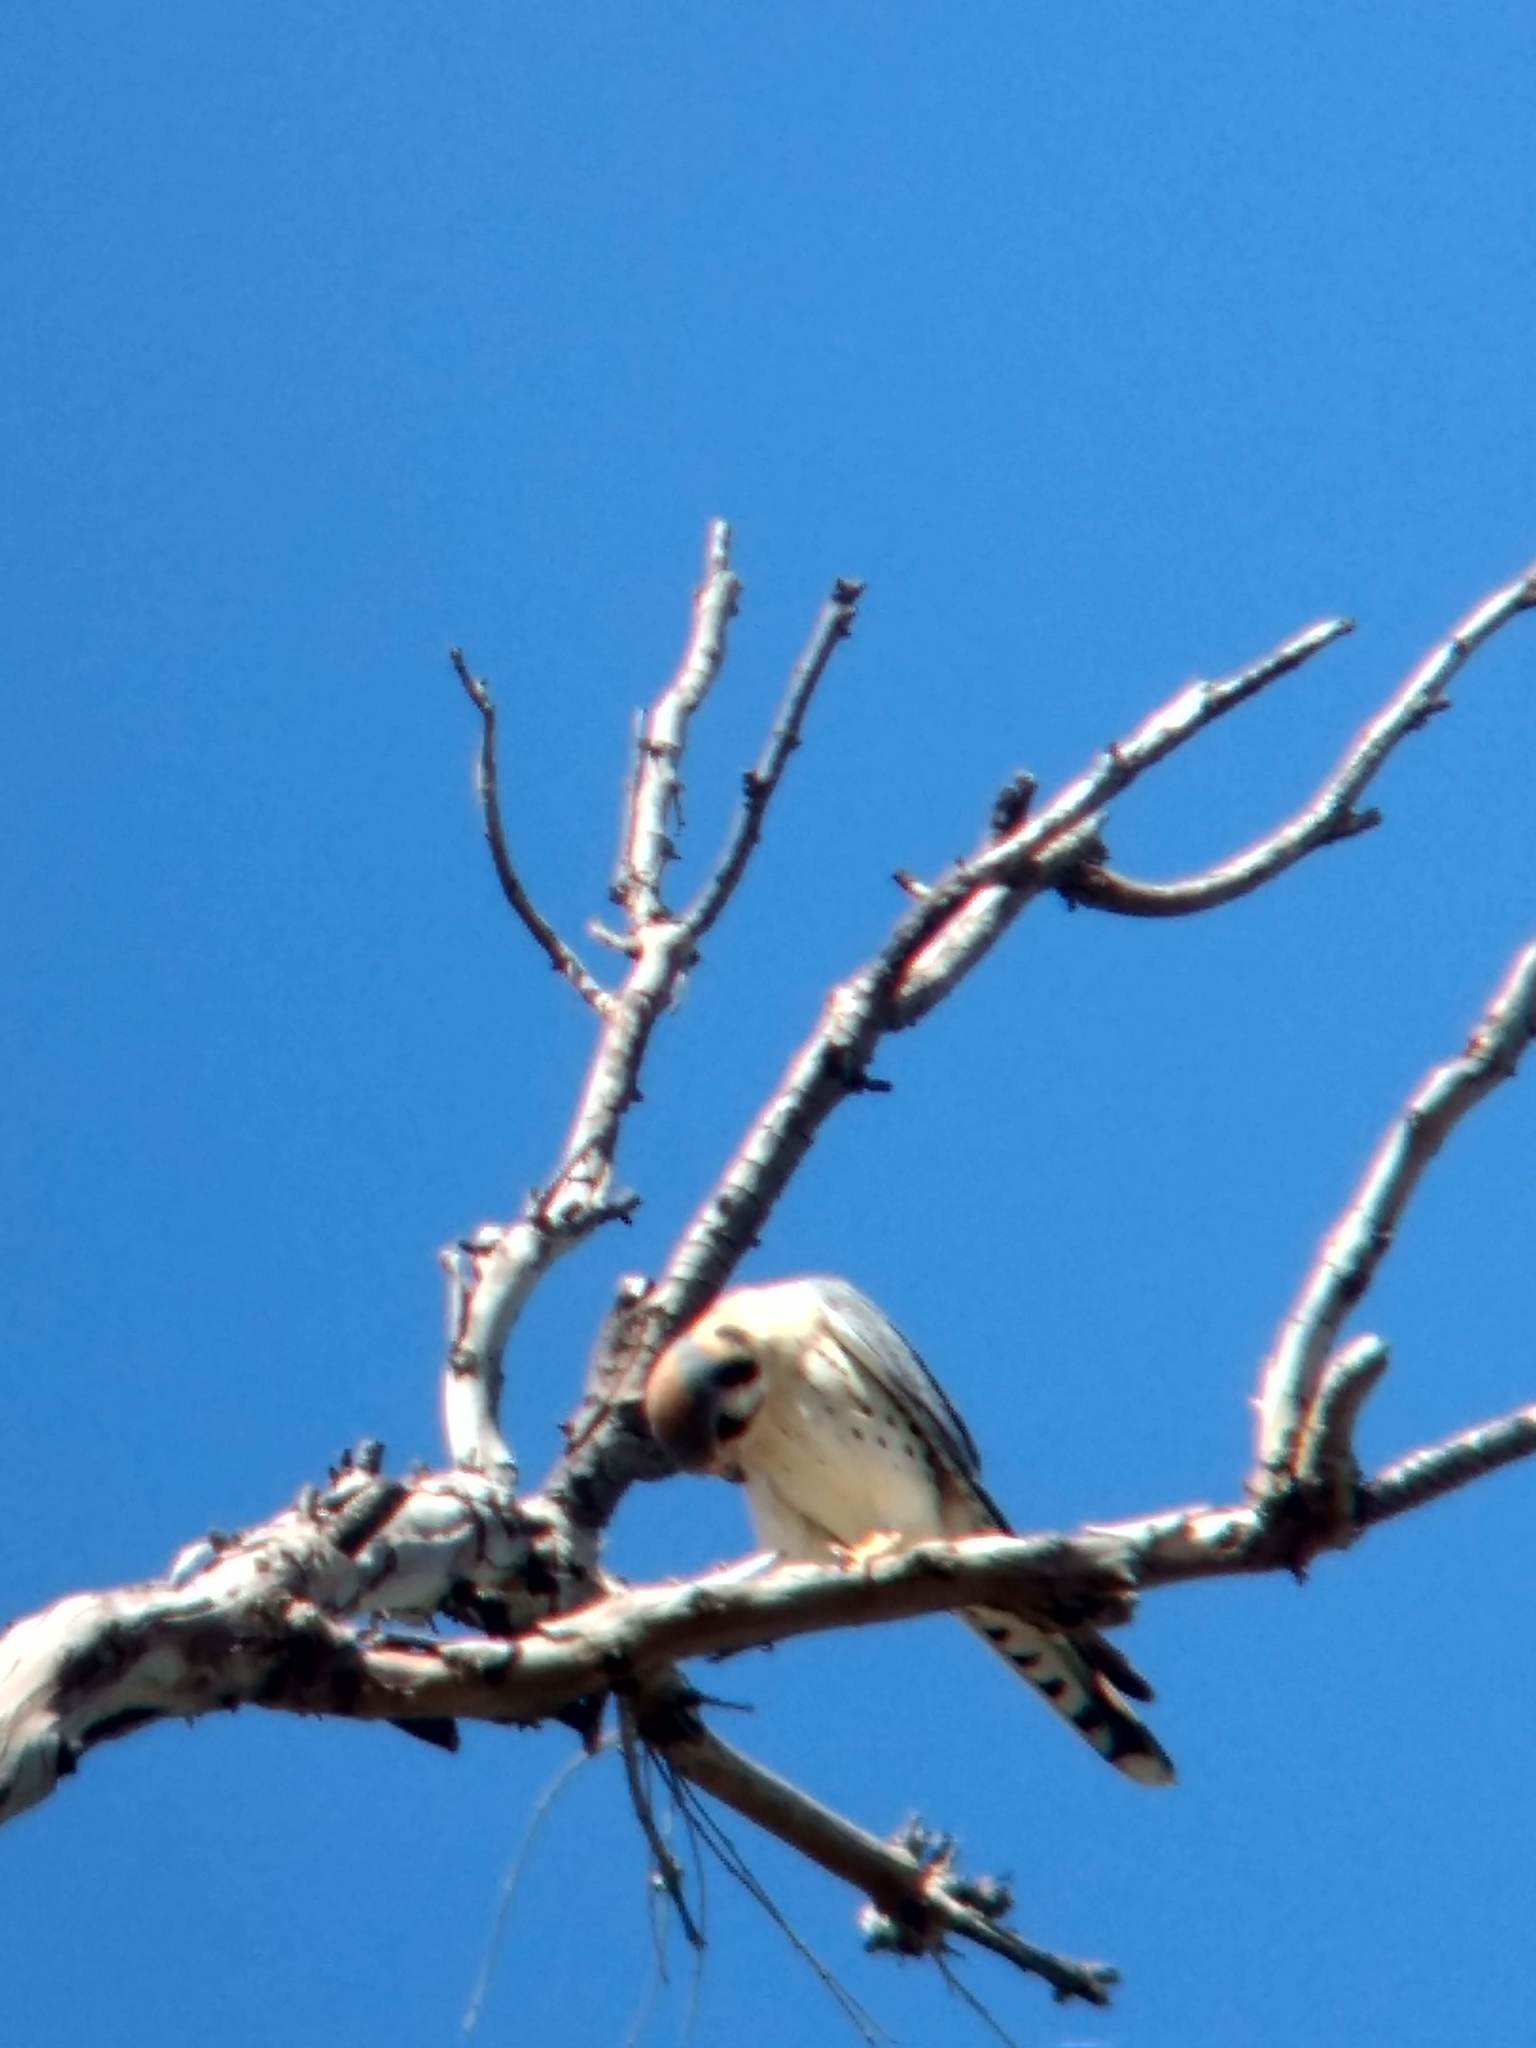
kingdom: Animalia
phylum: Chordata
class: Aves
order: Falconiformes
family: Falconidae
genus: Falco
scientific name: Falco sparverius
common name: American kestrel
